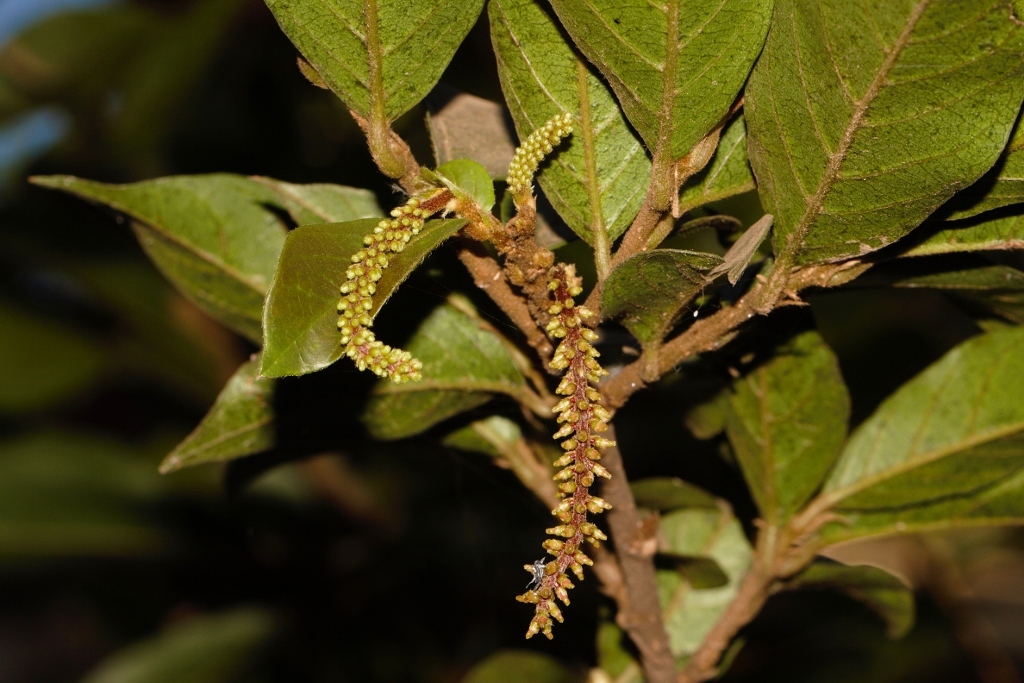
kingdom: Plantae
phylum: Tracheophyta
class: Magnoliopsida
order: Malpighiales
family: Phyllanthaceae
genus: Antidesma
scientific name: Antidesma vogelianum
